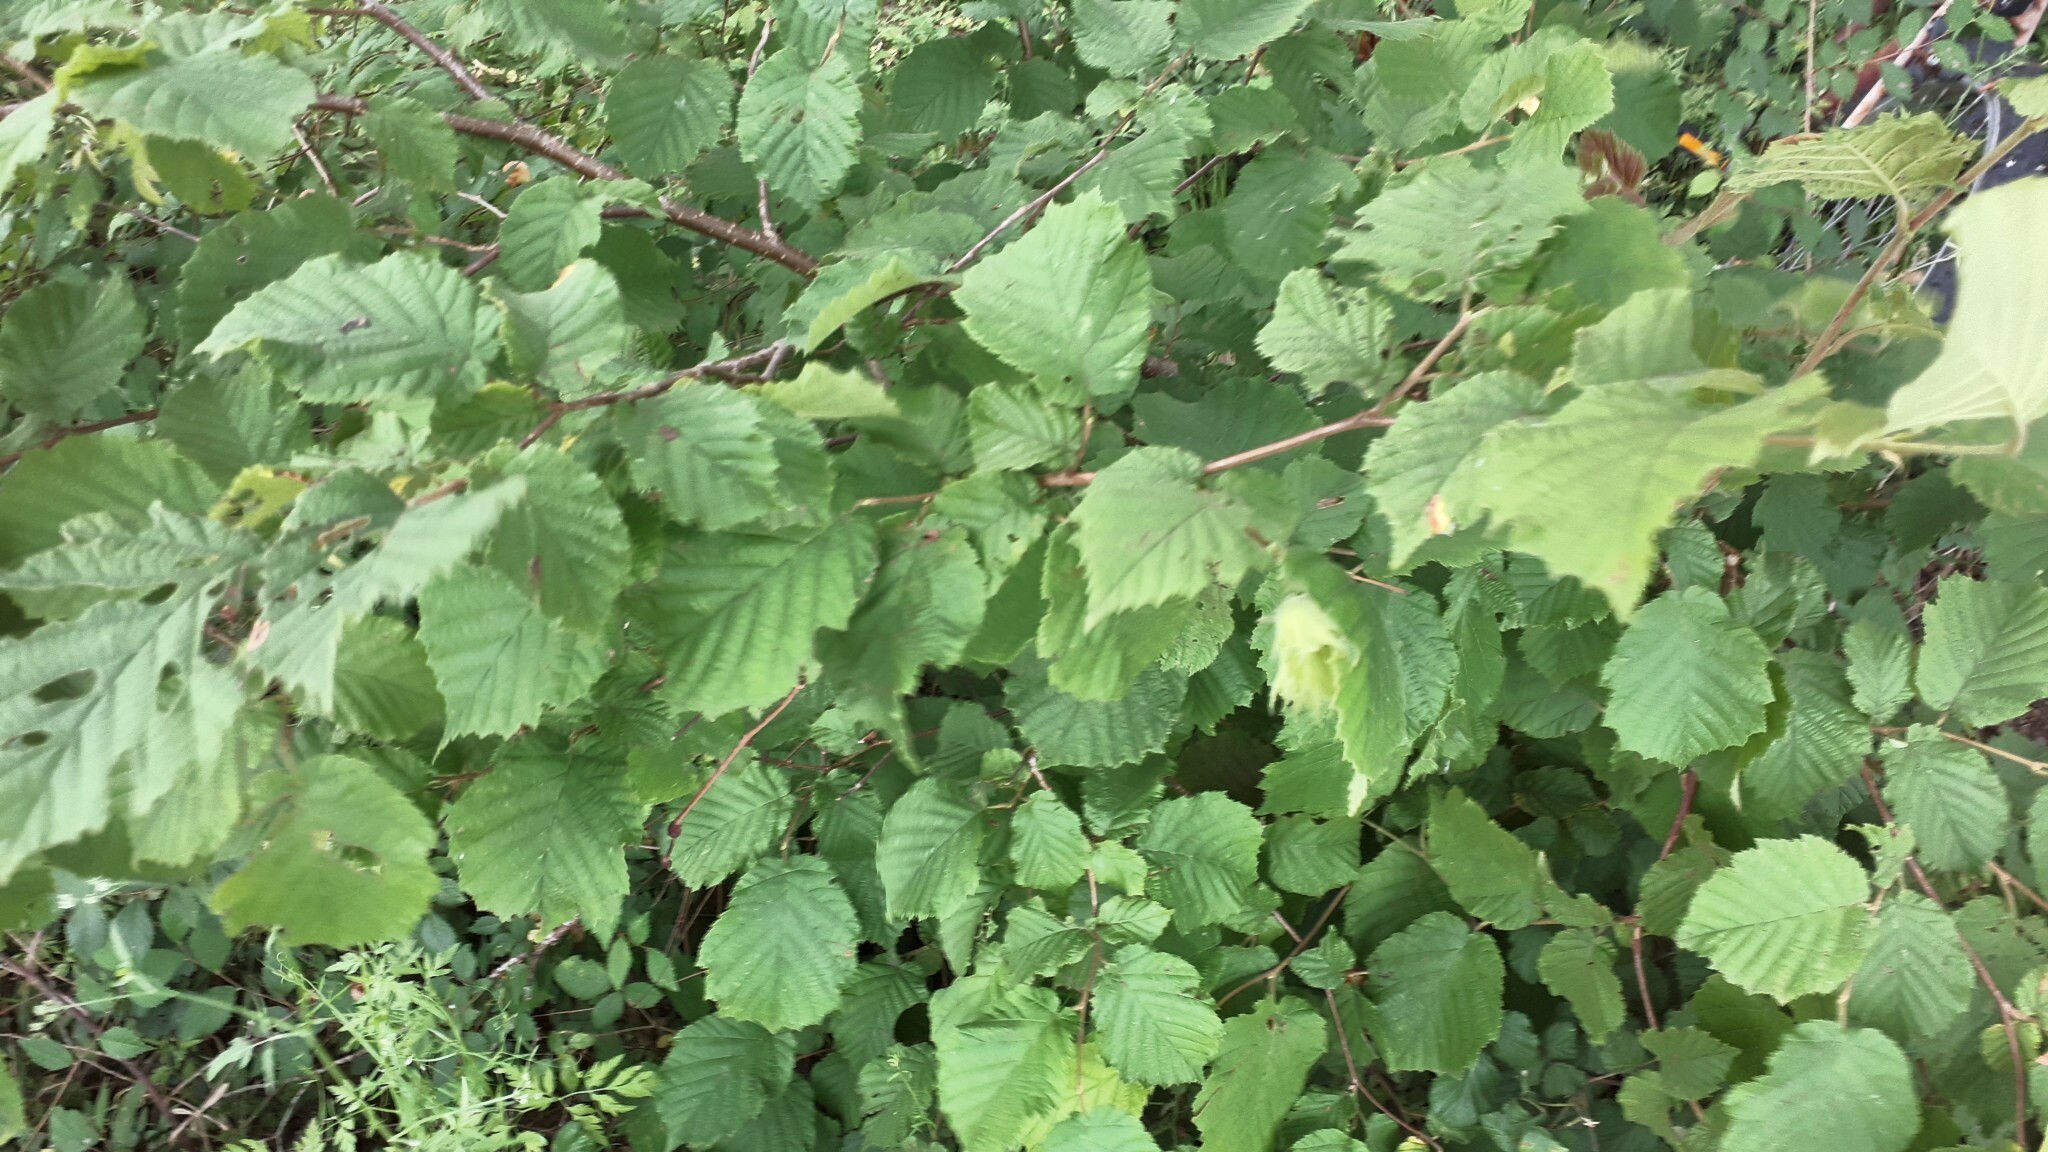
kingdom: Plantae
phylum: Tracheophyta
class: Magnoliopsida
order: Fagales
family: Betulaceae
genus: Corylus
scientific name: Corylus avellana
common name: European hazel
